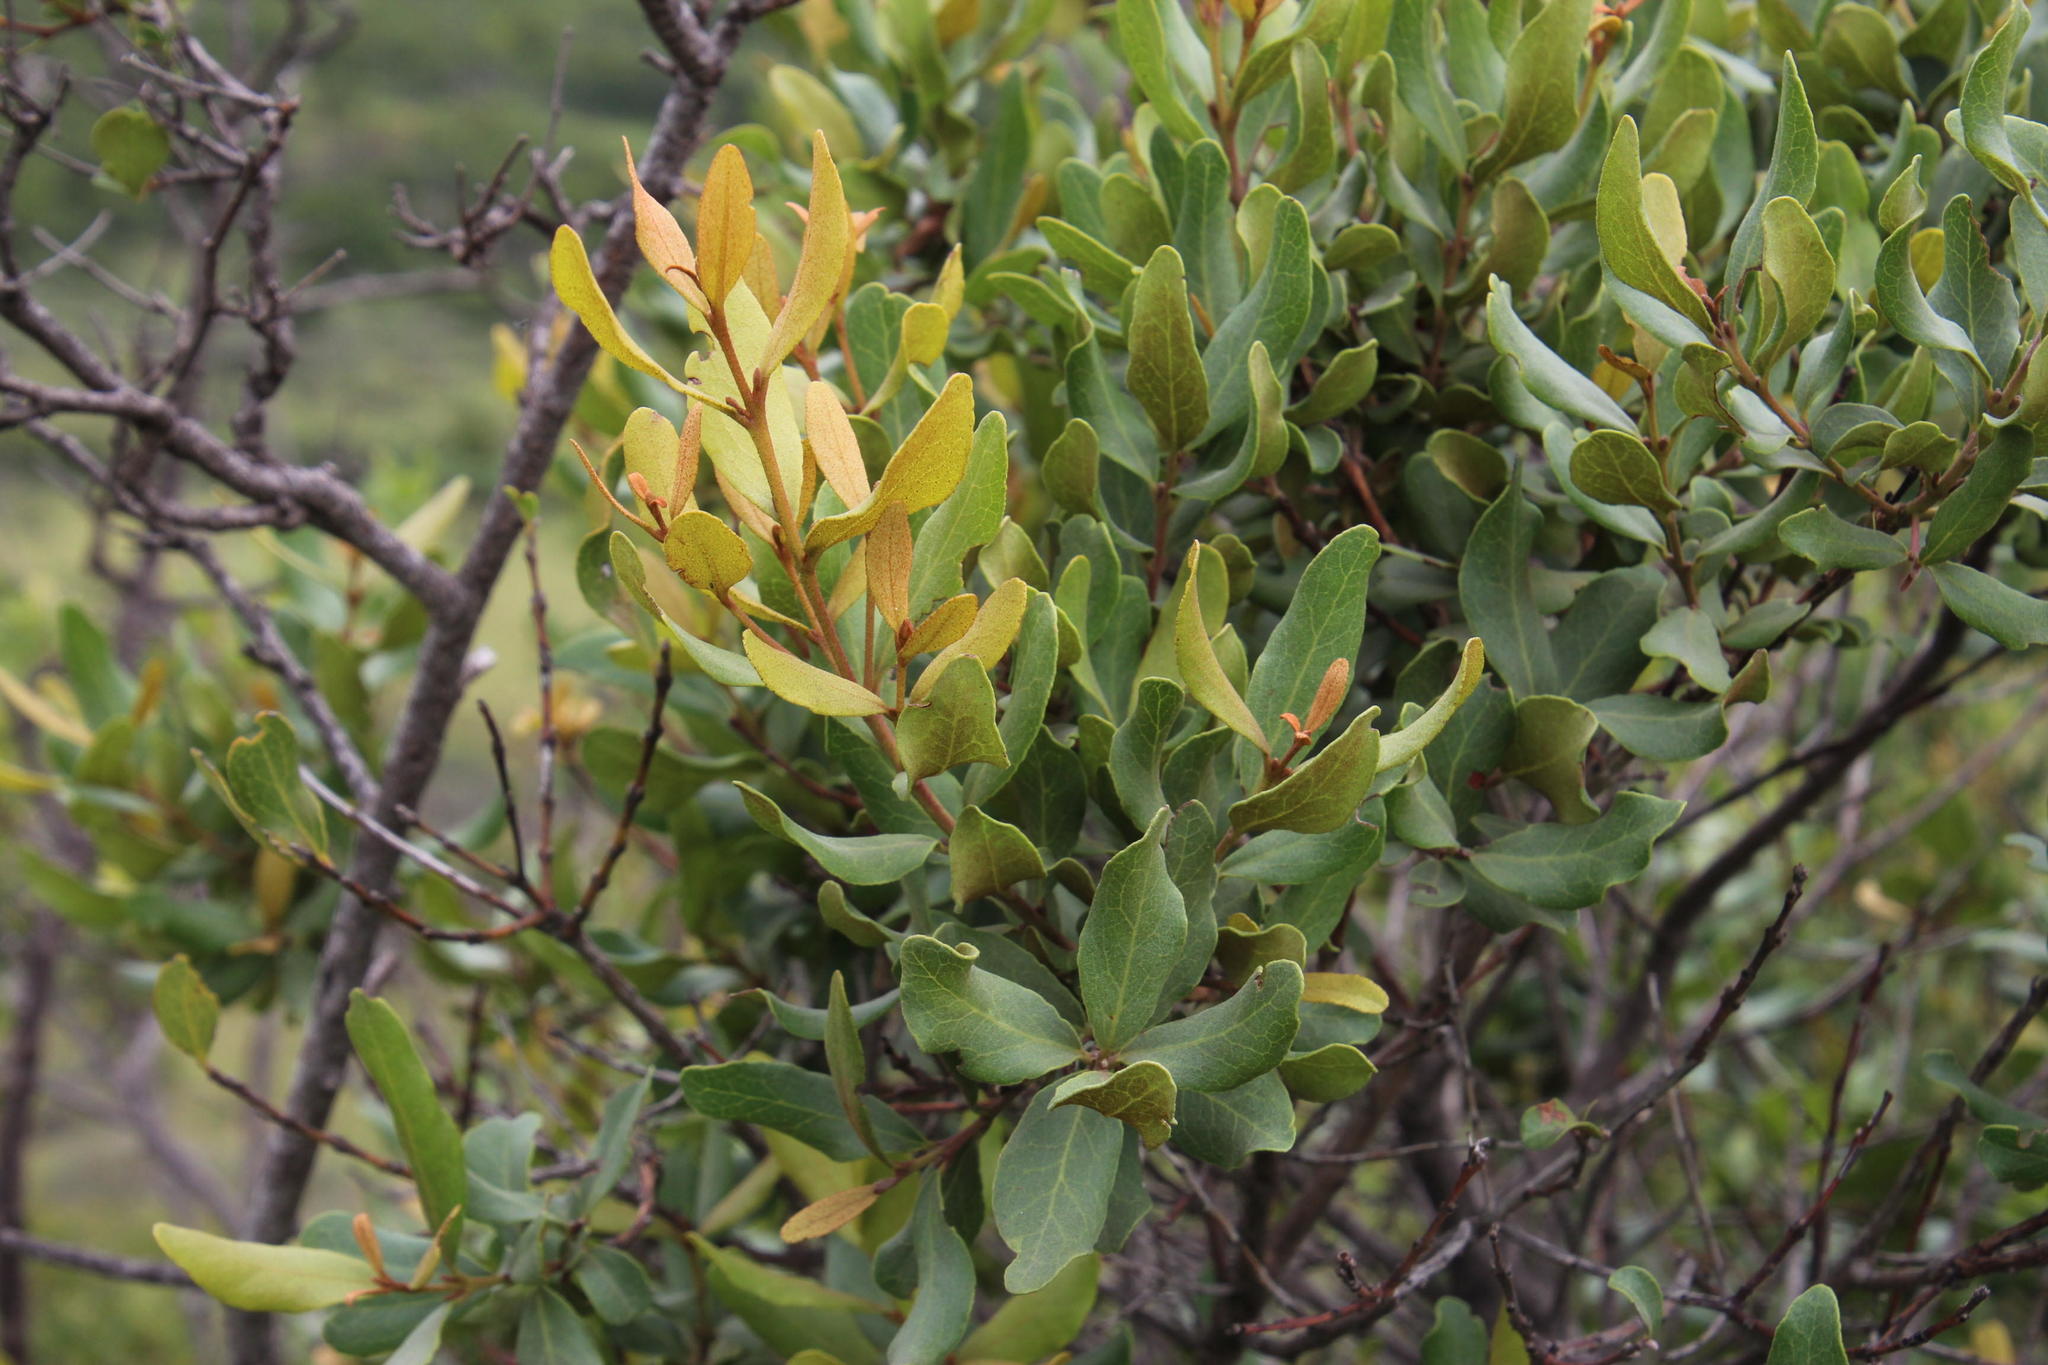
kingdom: Plantae
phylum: Tracheophyta
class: Magnoliopsida
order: Ericales
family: Ebenaceae
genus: Euclea
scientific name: Euclea crispa
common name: Blue guarri
